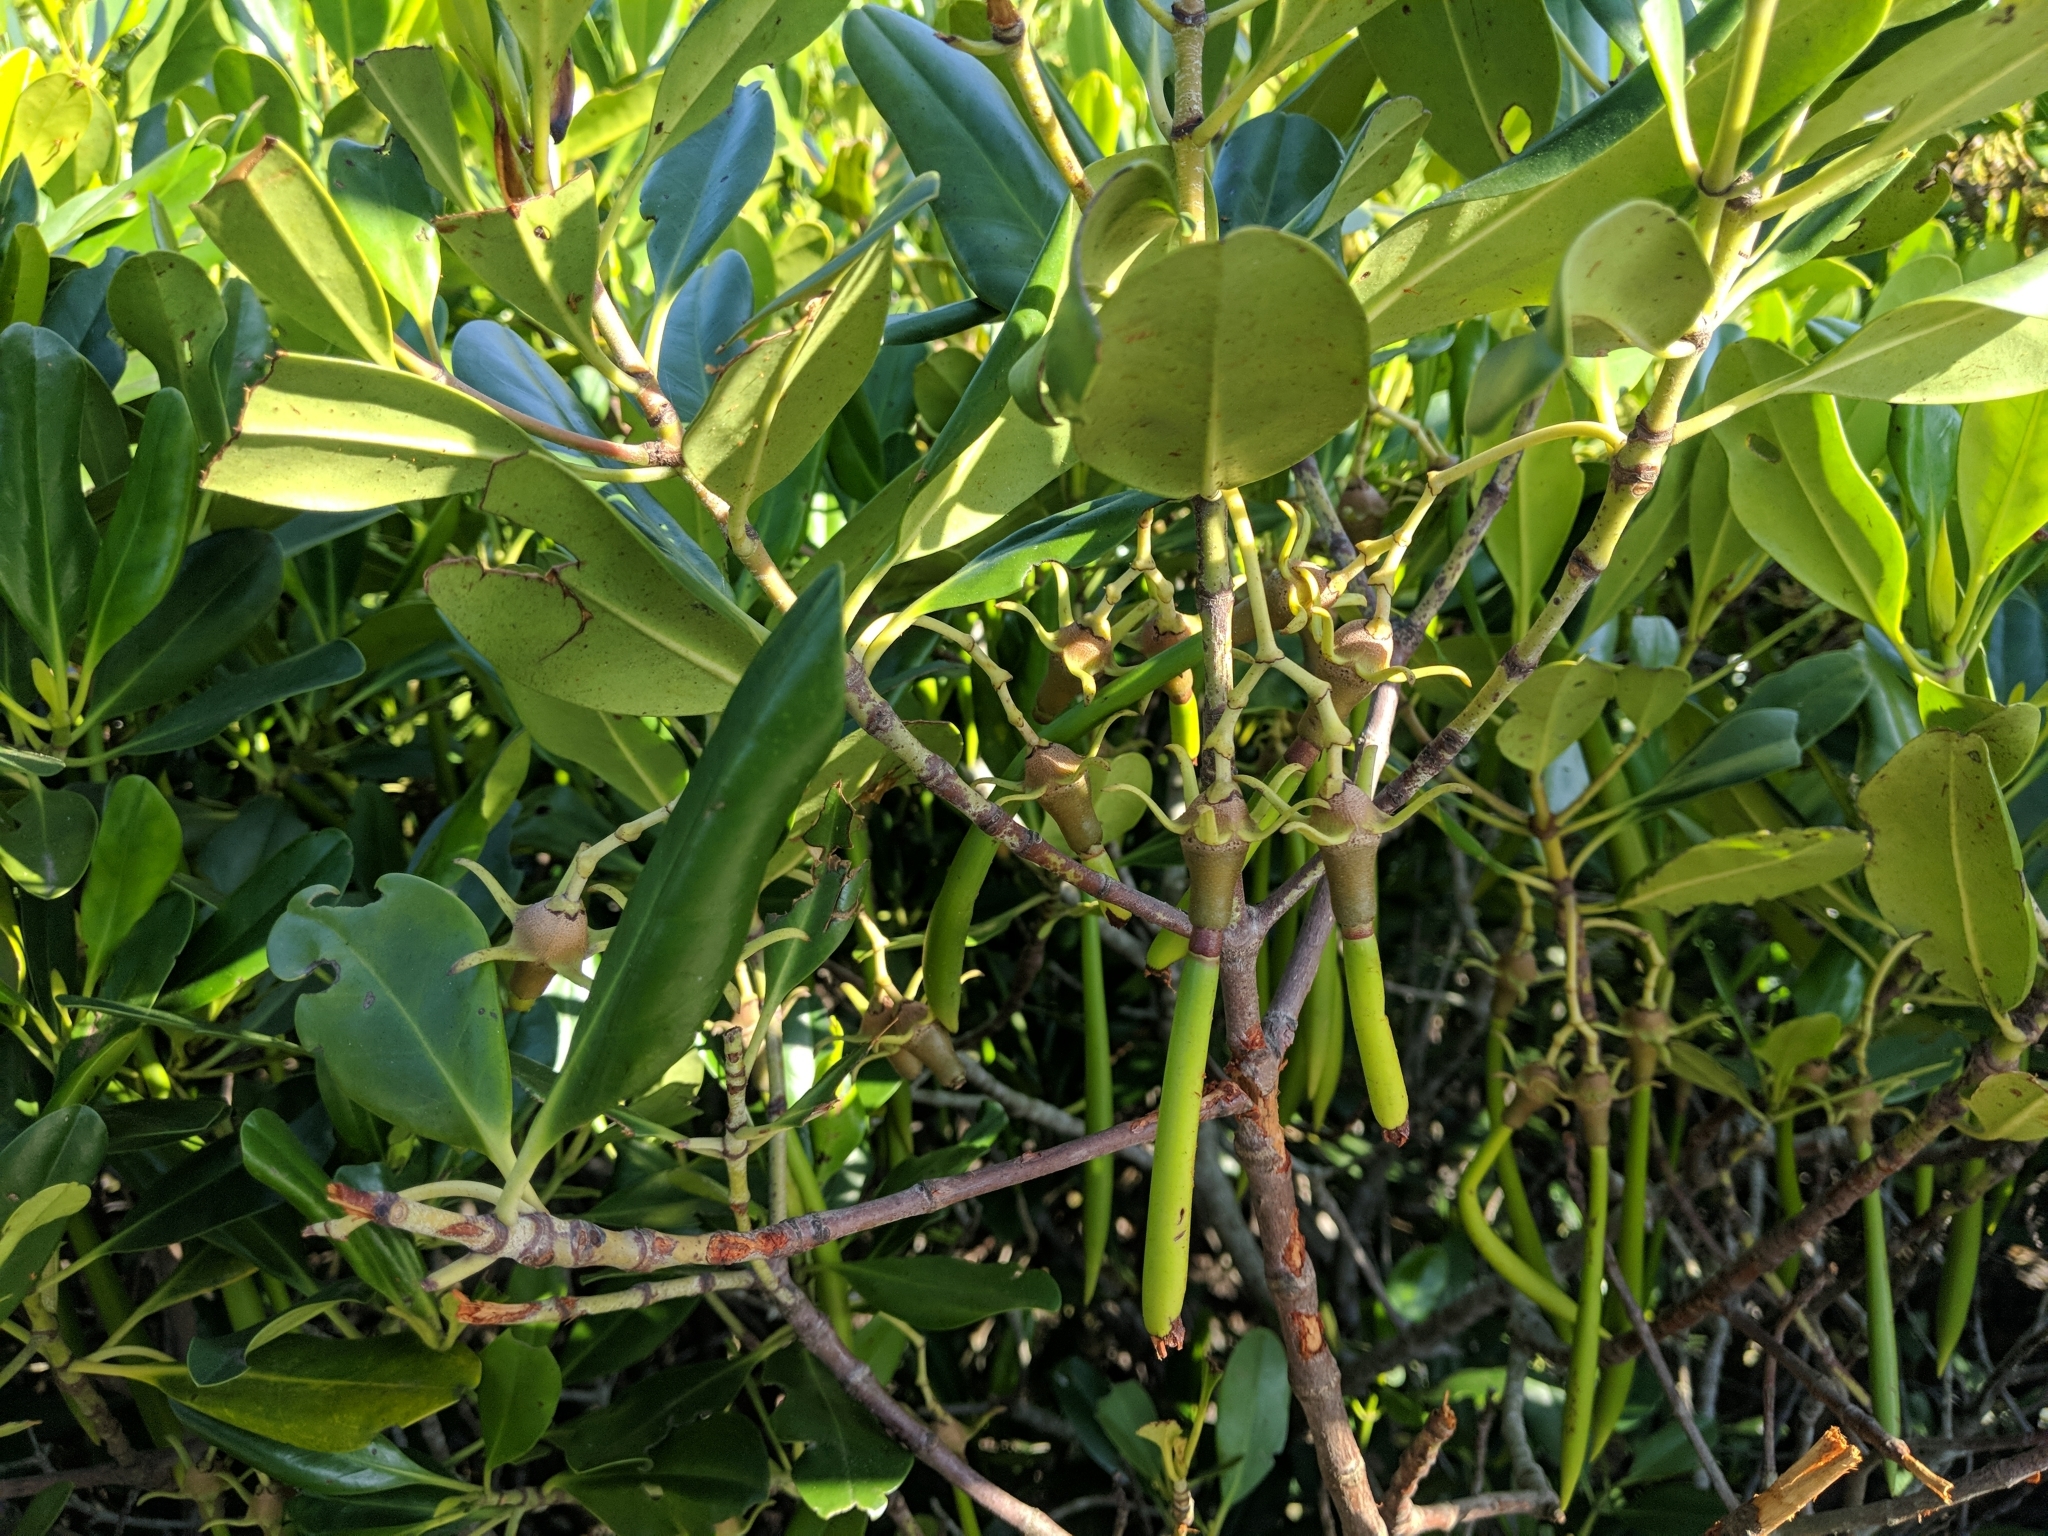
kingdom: Plantae
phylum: Tracheophyta
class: Magnoliopsida
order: Malpighiales
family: Rhizophoraceae
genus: Kandelia
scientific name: Kandelia obovata
